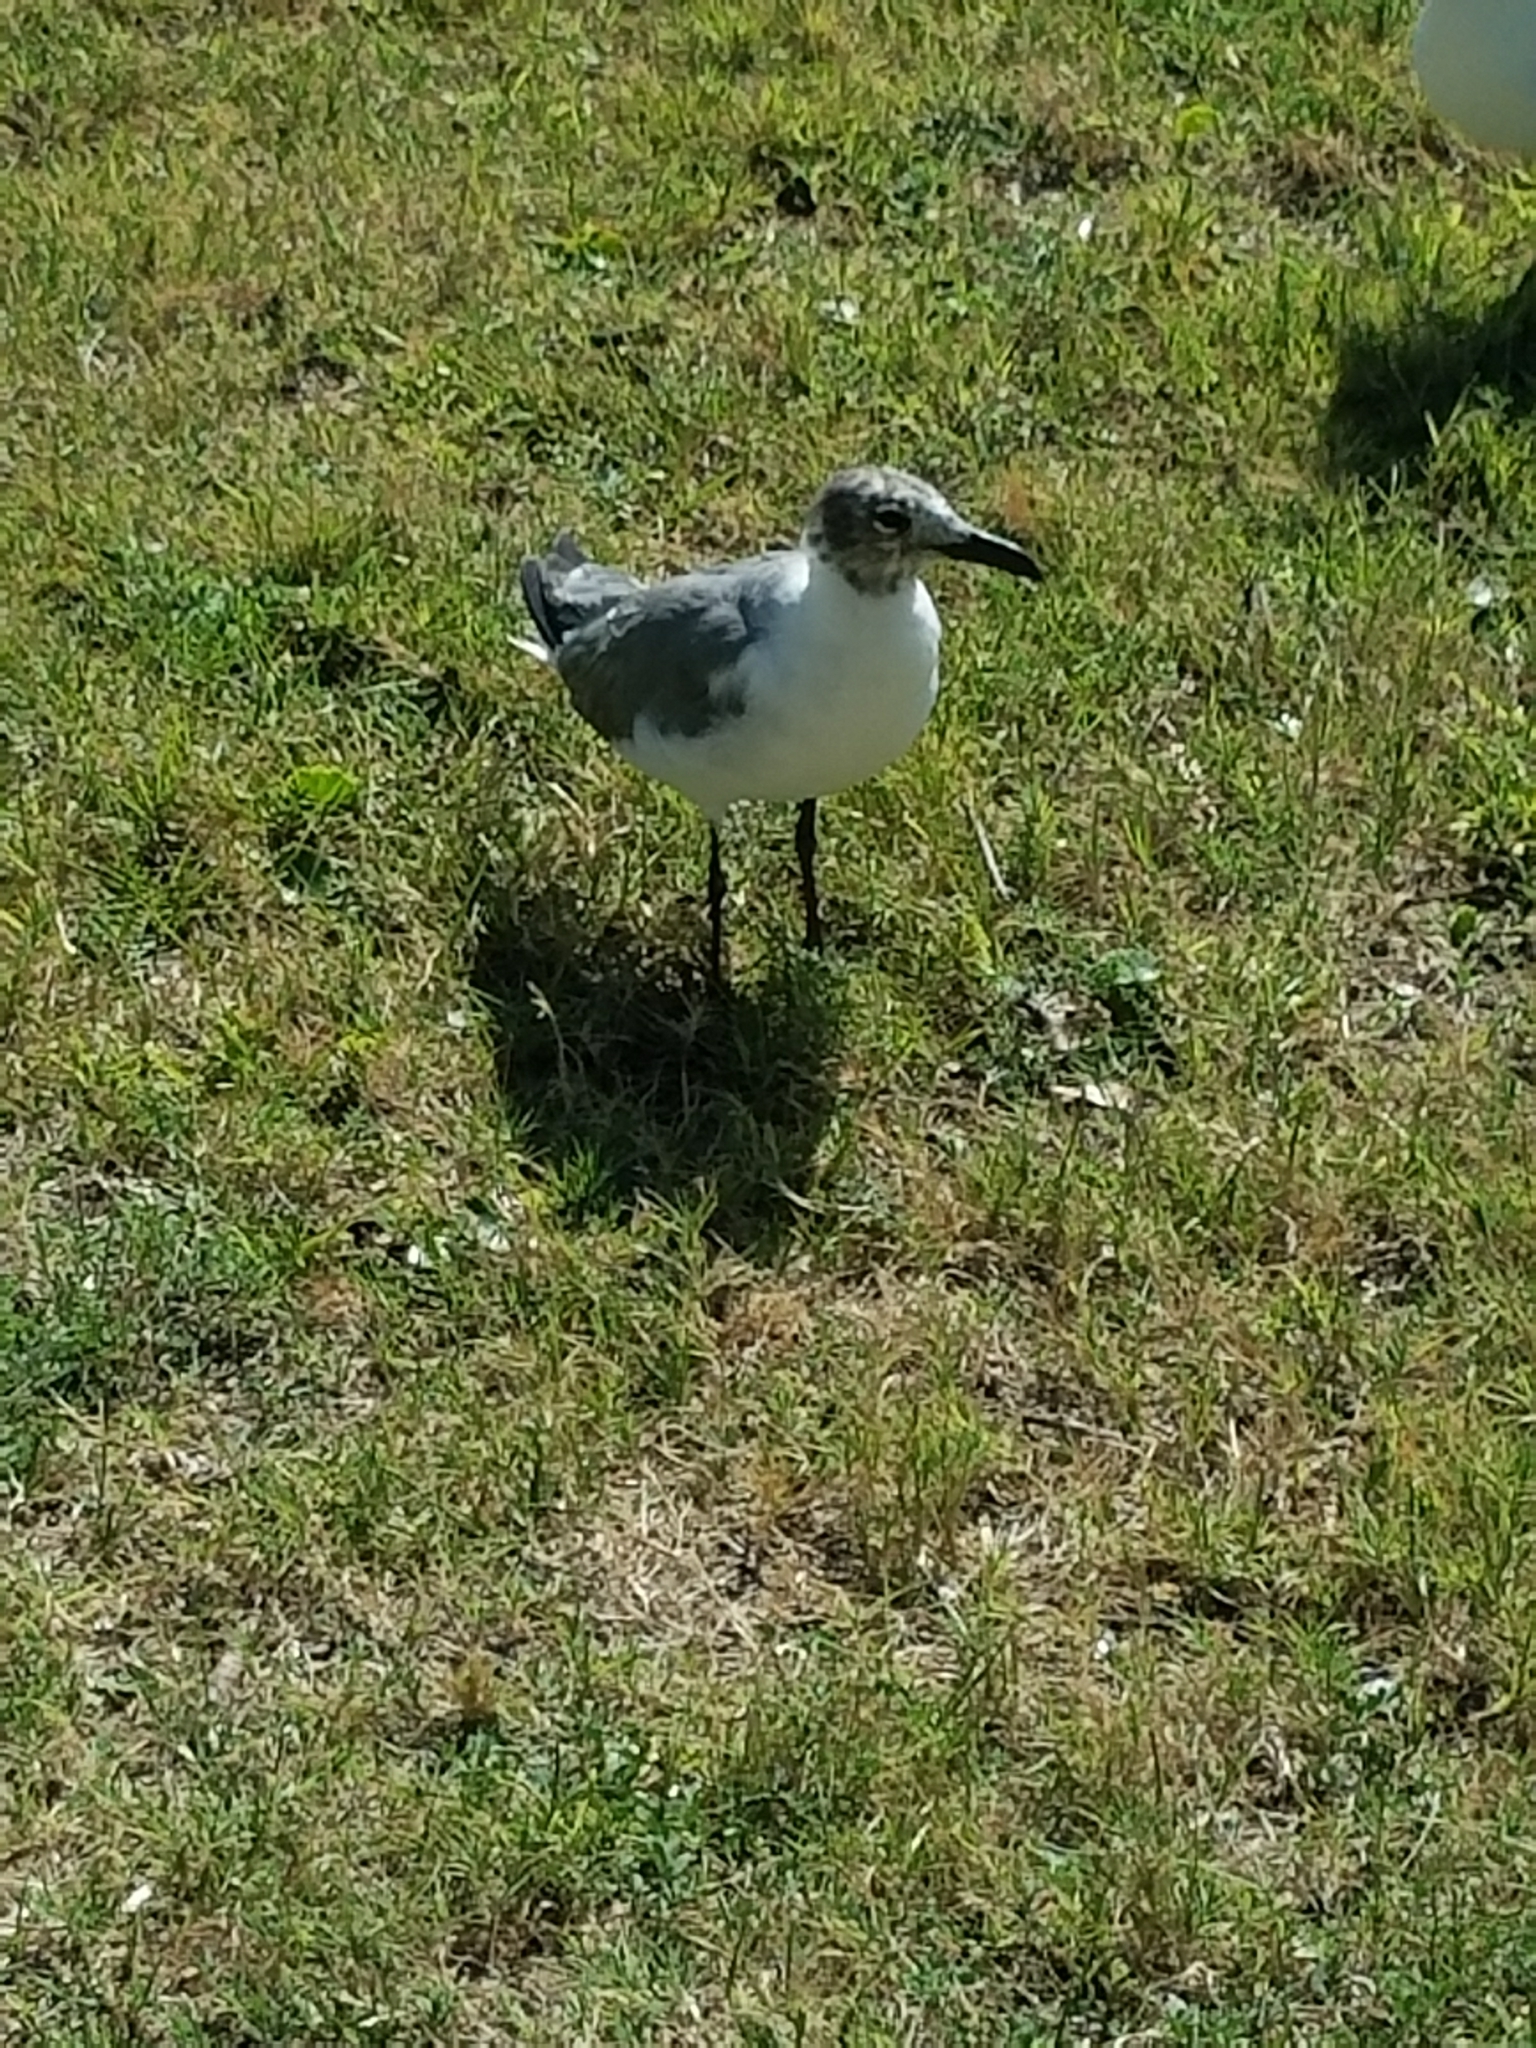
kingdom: Animalia
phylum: Chordata
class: Aves
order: Charadriiformes
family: Laridae
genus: Leucophaeus
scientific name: Leucophaeus atricilla
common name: Laughing gull
